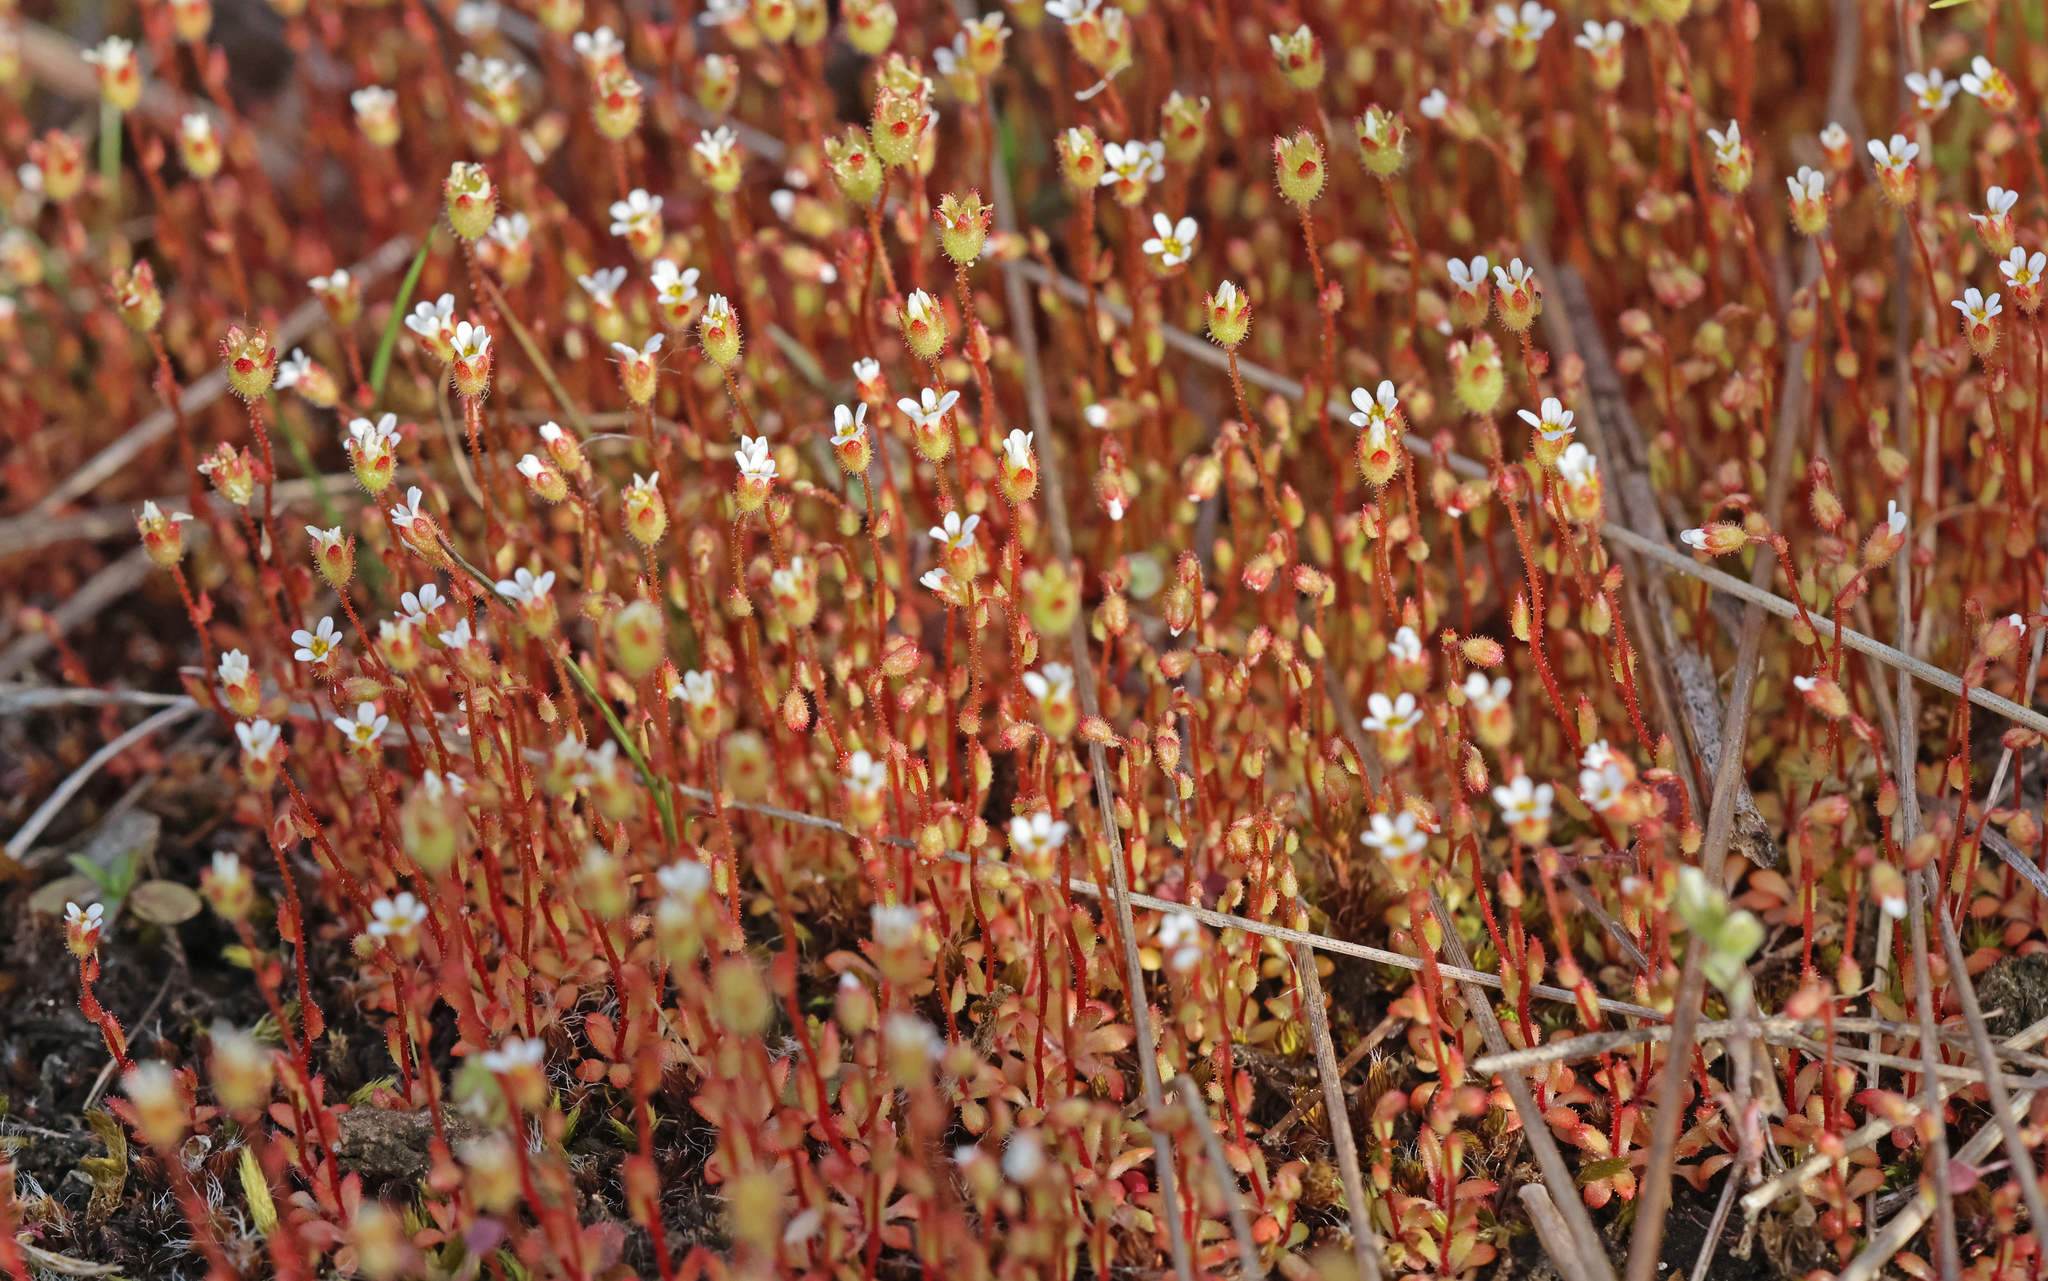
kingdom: Plantae
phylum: Tracheophyta
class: Magnoliopsida
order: Saxifragales
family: Saxifragaceae
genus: Saxifraga
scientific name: Saxifraga tridactylites
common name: Rue-leaved saxifrage
